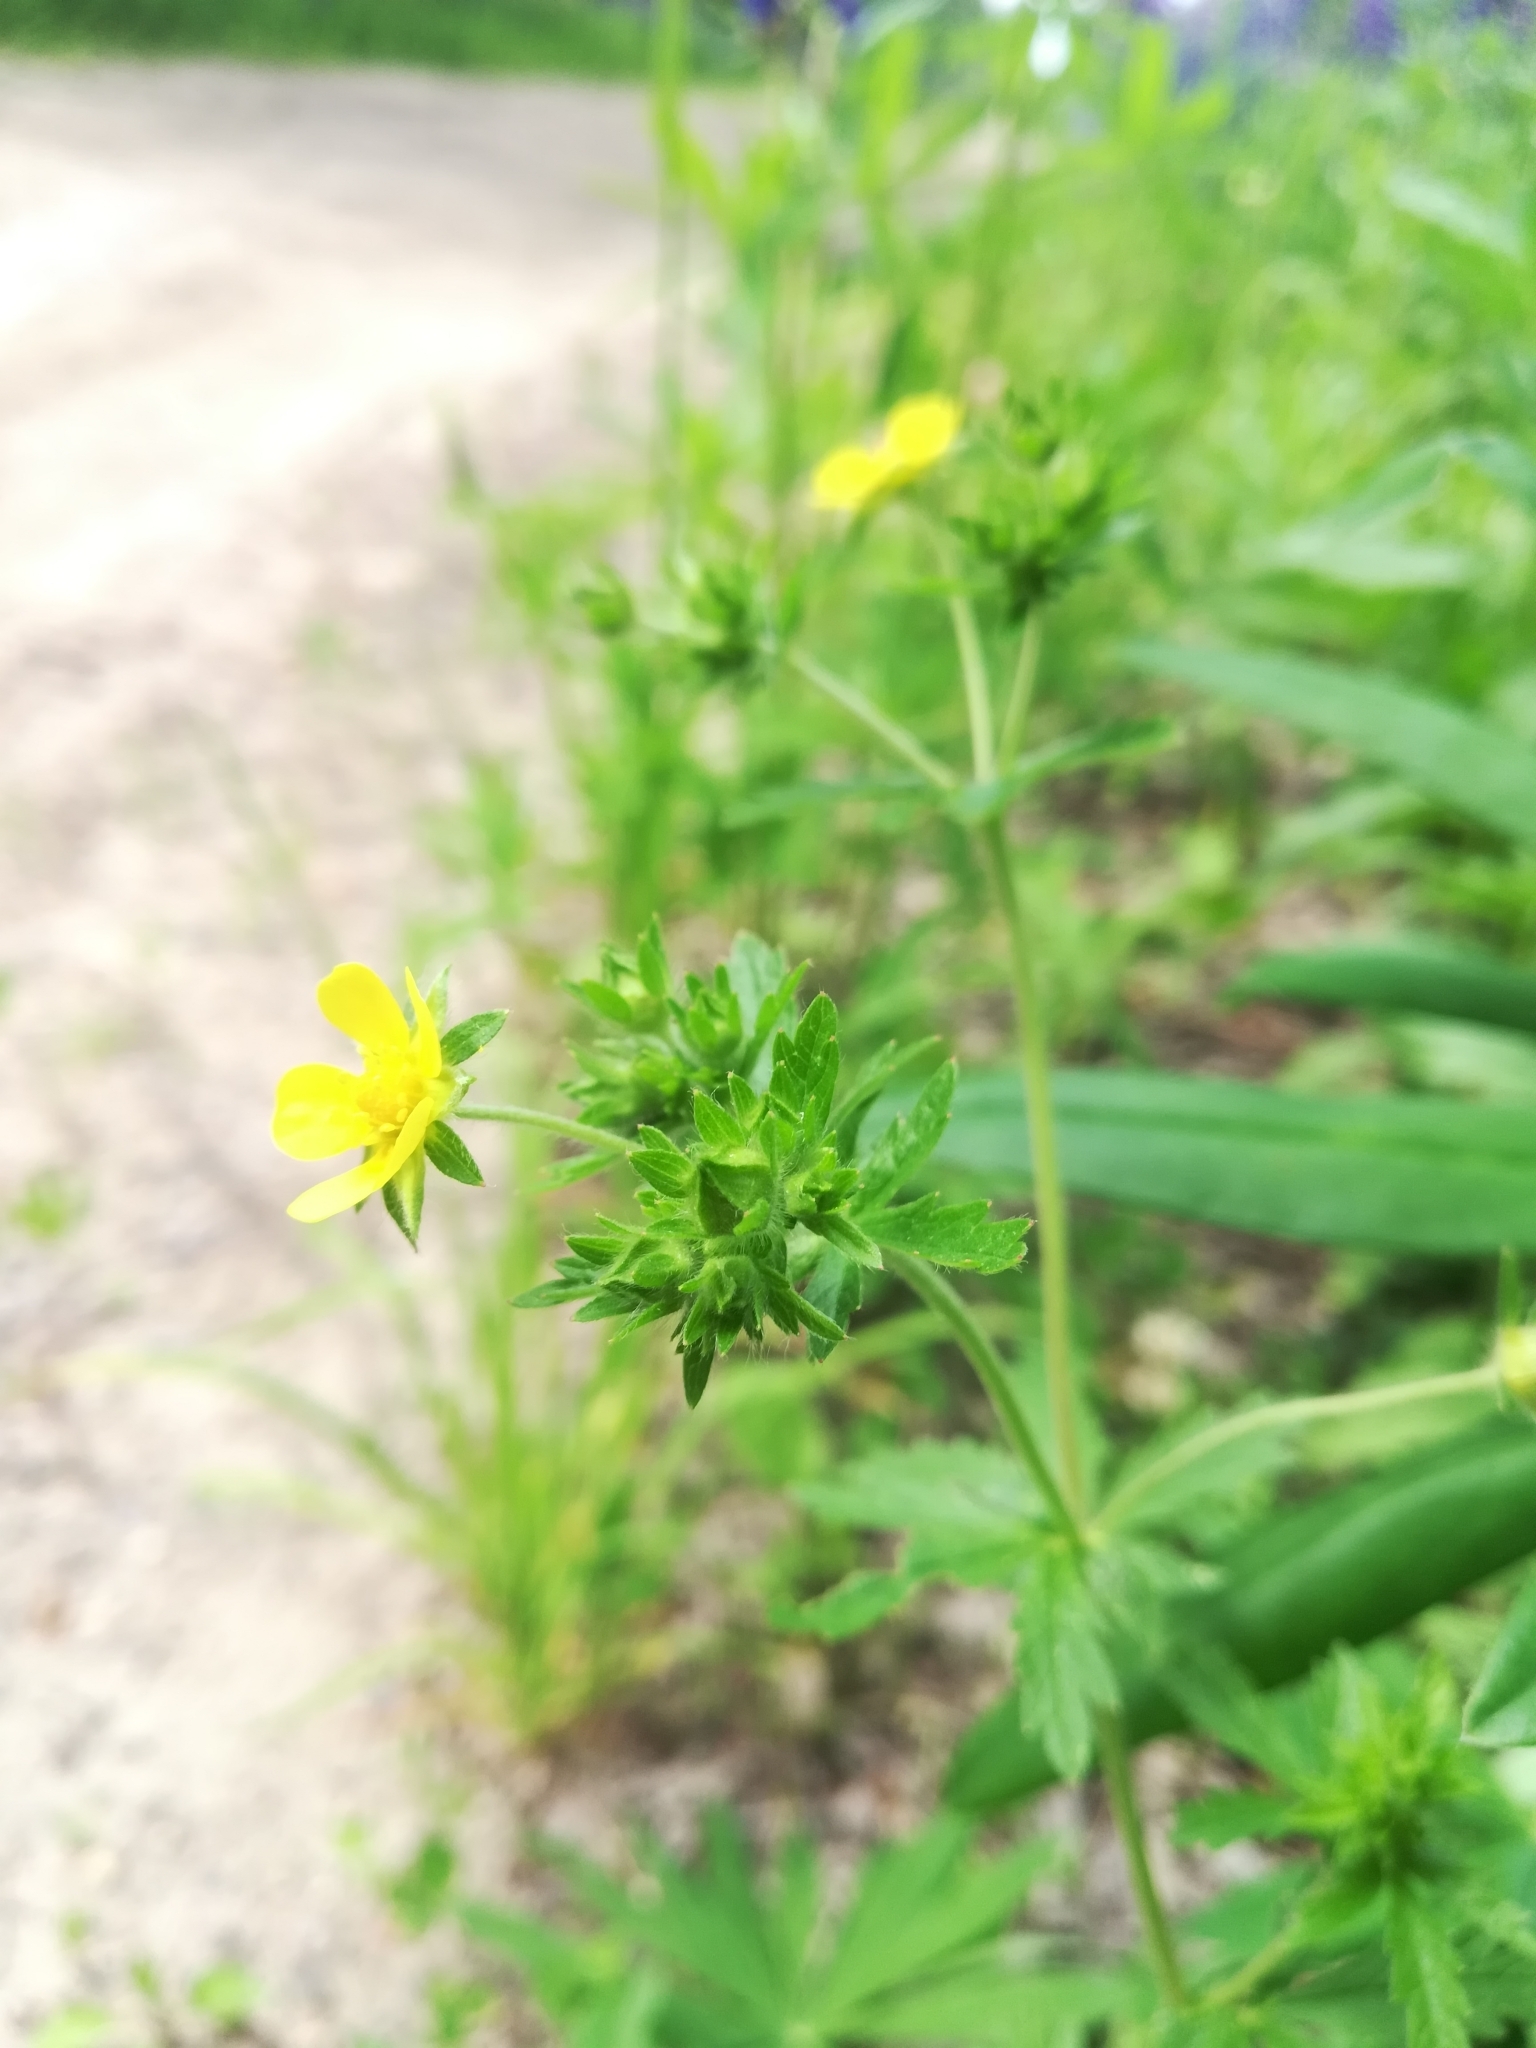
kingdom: Plantae
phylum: Tracheophyta
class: Magnoliopsida
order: Rosales
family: Rosaceae
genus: Potentilla
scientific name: Potentilla intermedia
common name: Downy cinquefoil
